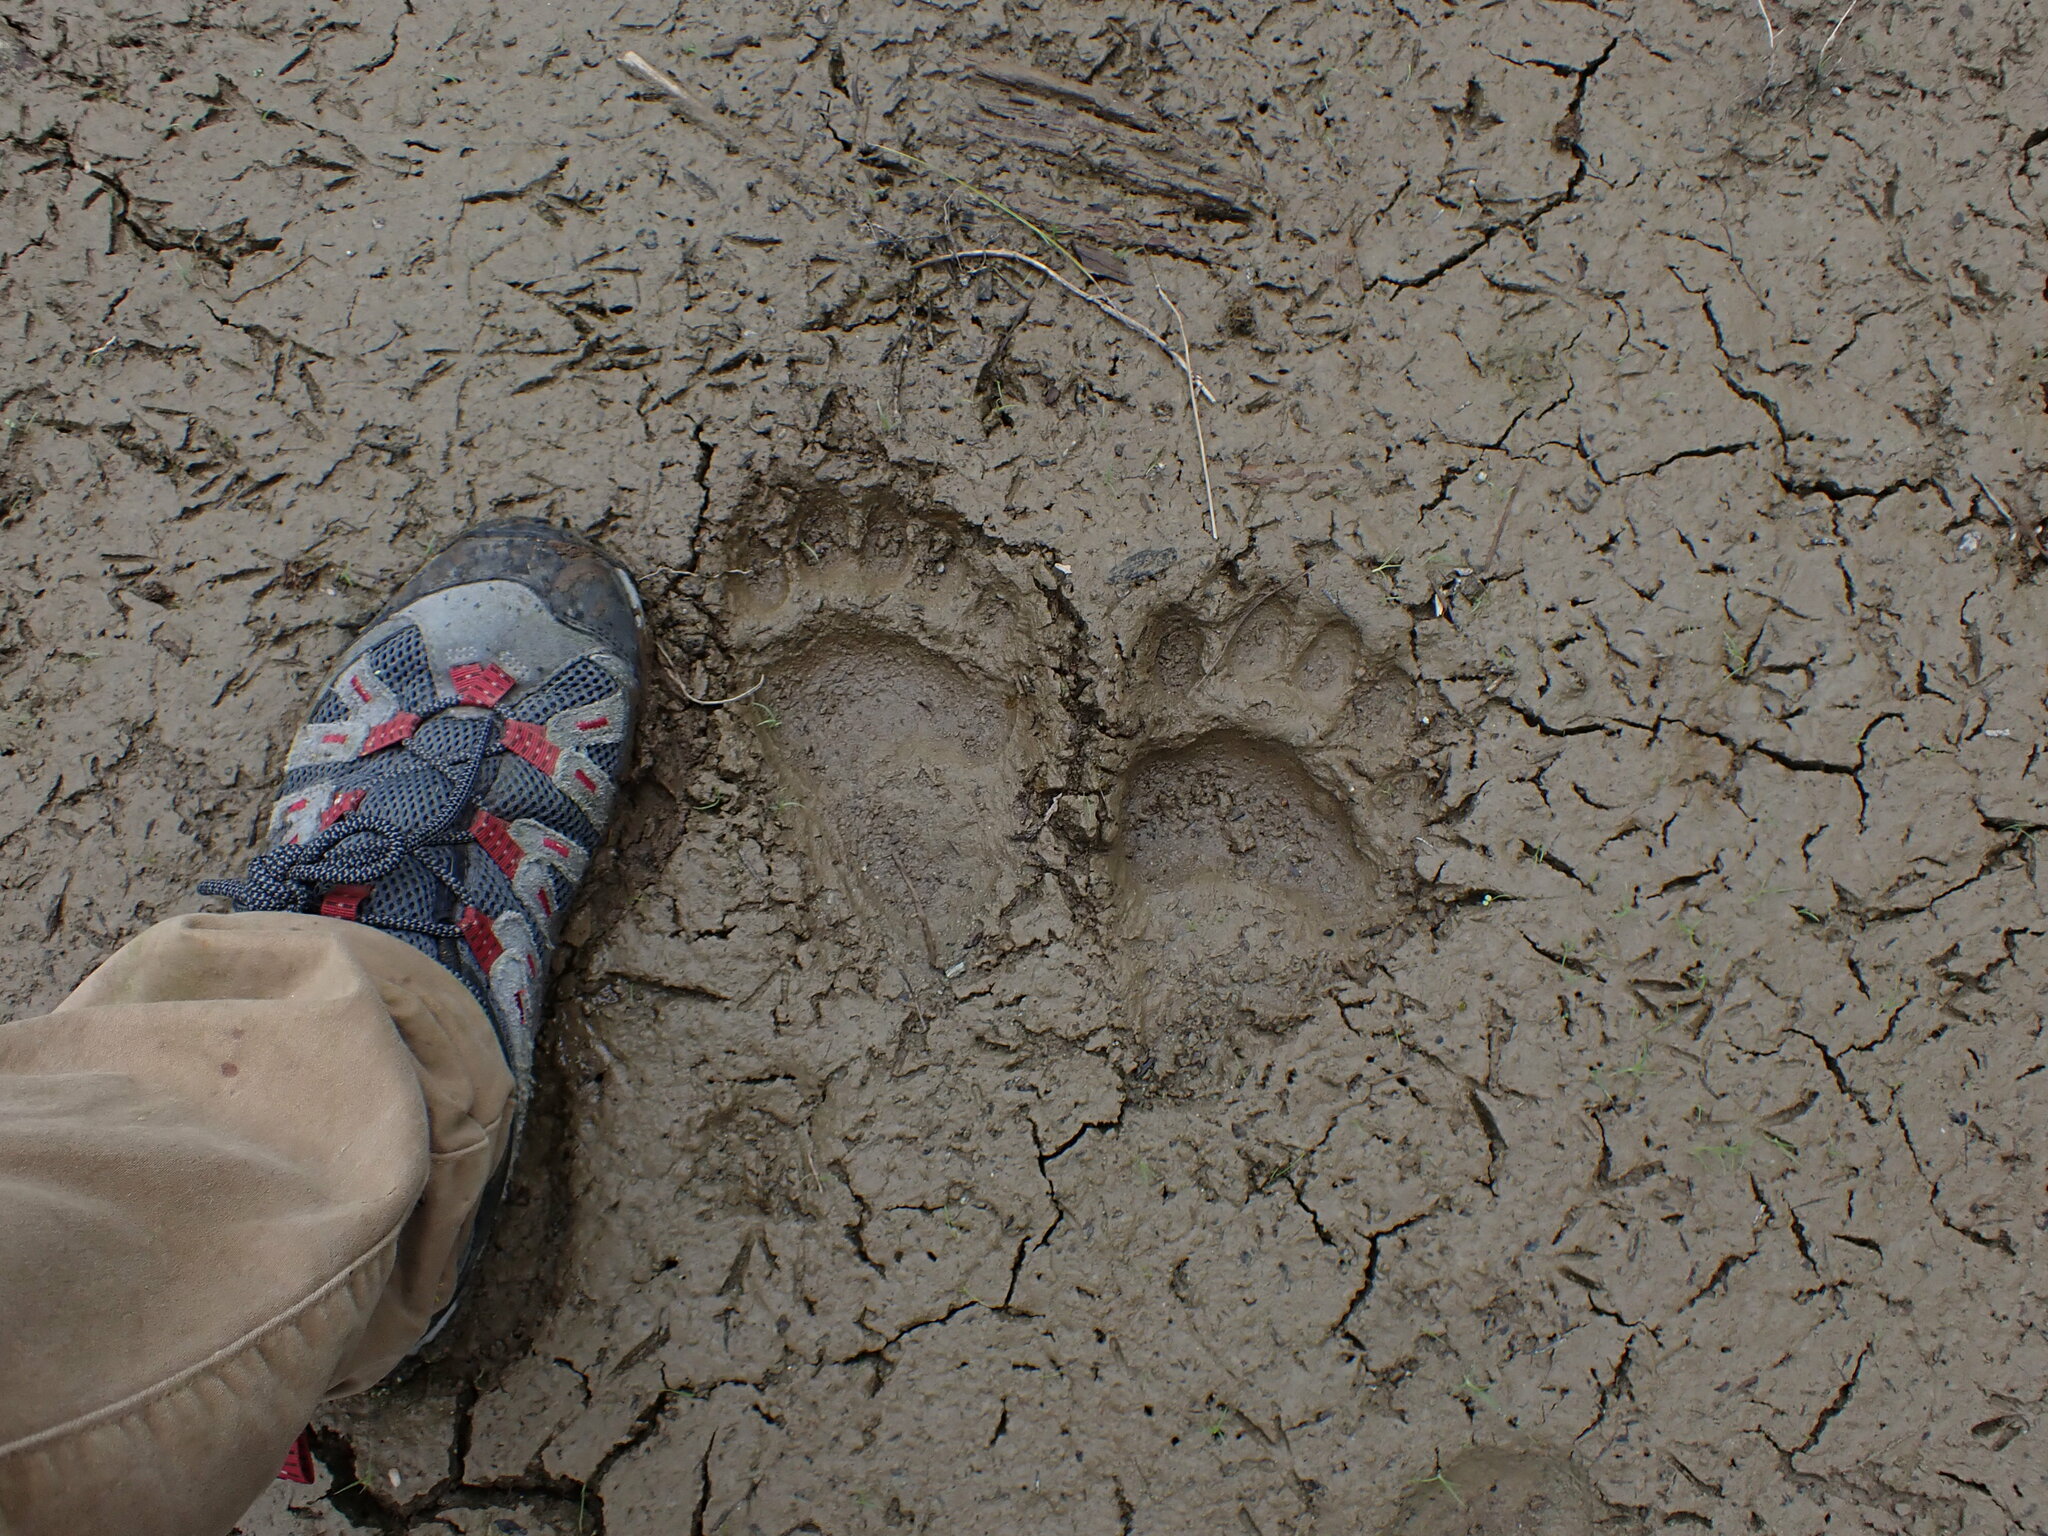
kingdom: Animalia
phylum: Chordata
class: Mammalia
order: Carnivora
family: Ursidae
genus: Ursus
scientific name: Ursus americanus
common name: American black bear
